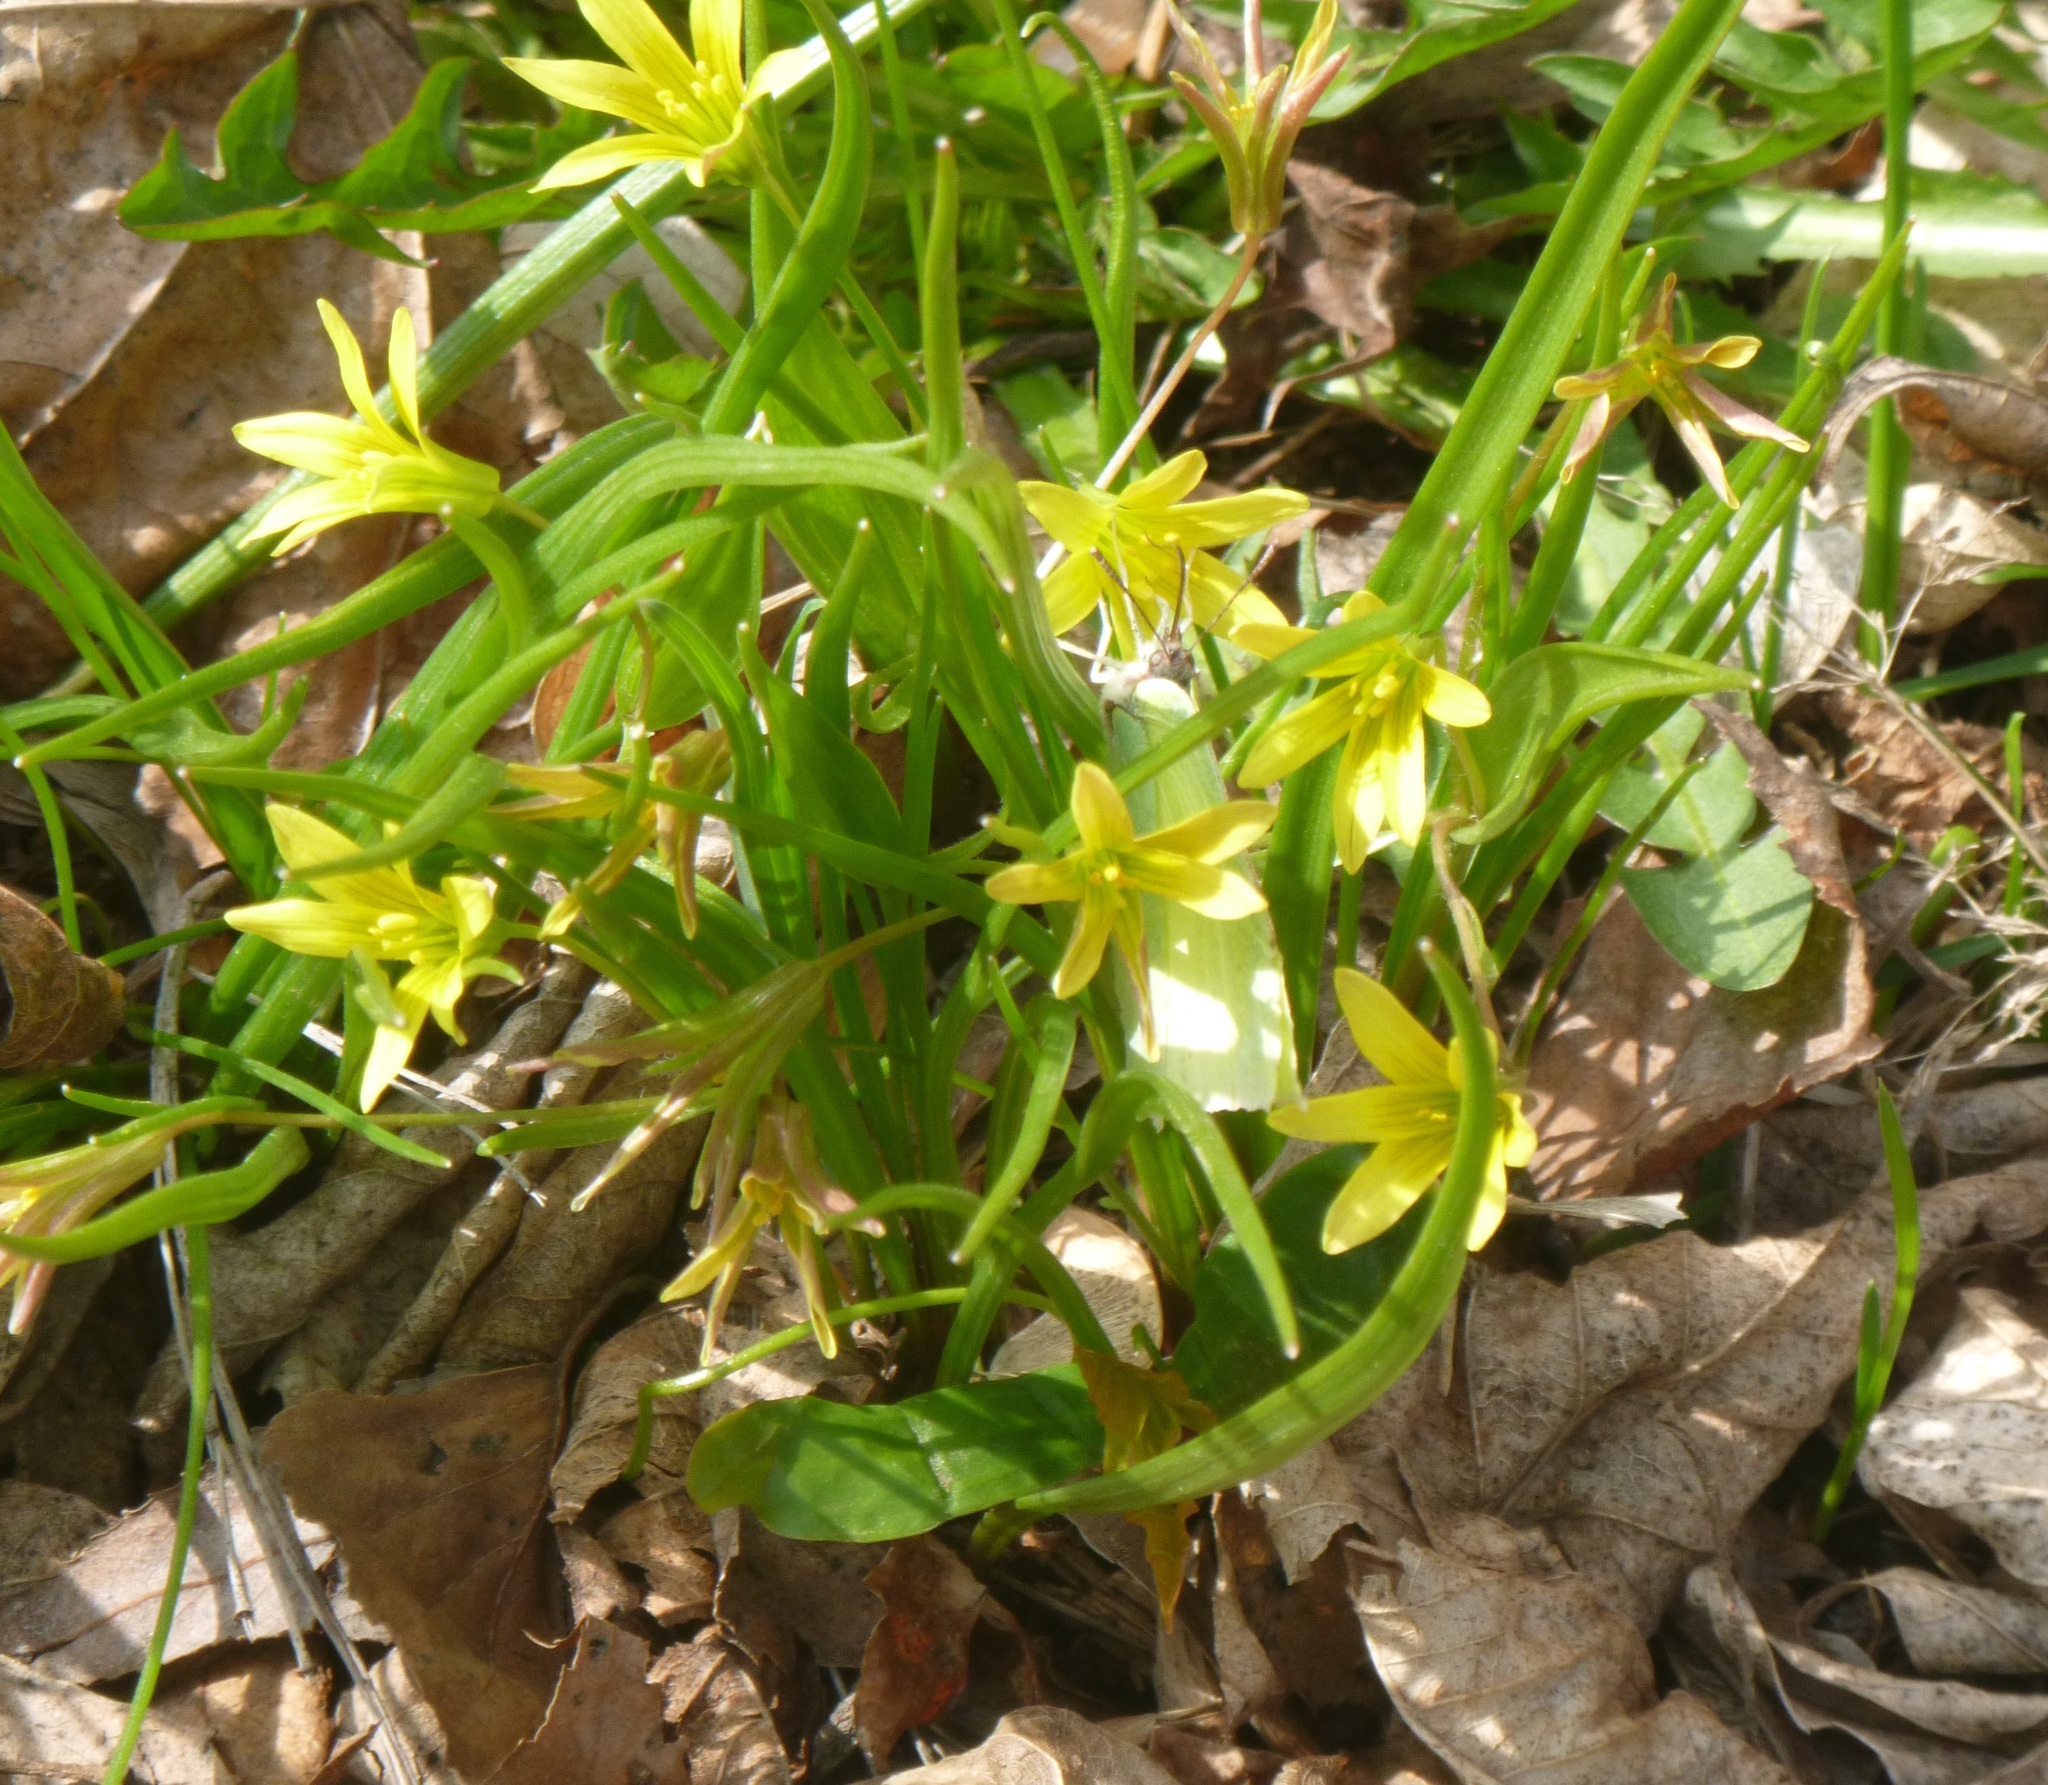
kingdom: Animalia
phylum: Arthropoda
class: Insecta
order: Lepidoptera
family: Pieridae
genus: Gonepteryx
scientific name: Gonepteryx rhamni
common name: Brimstone
